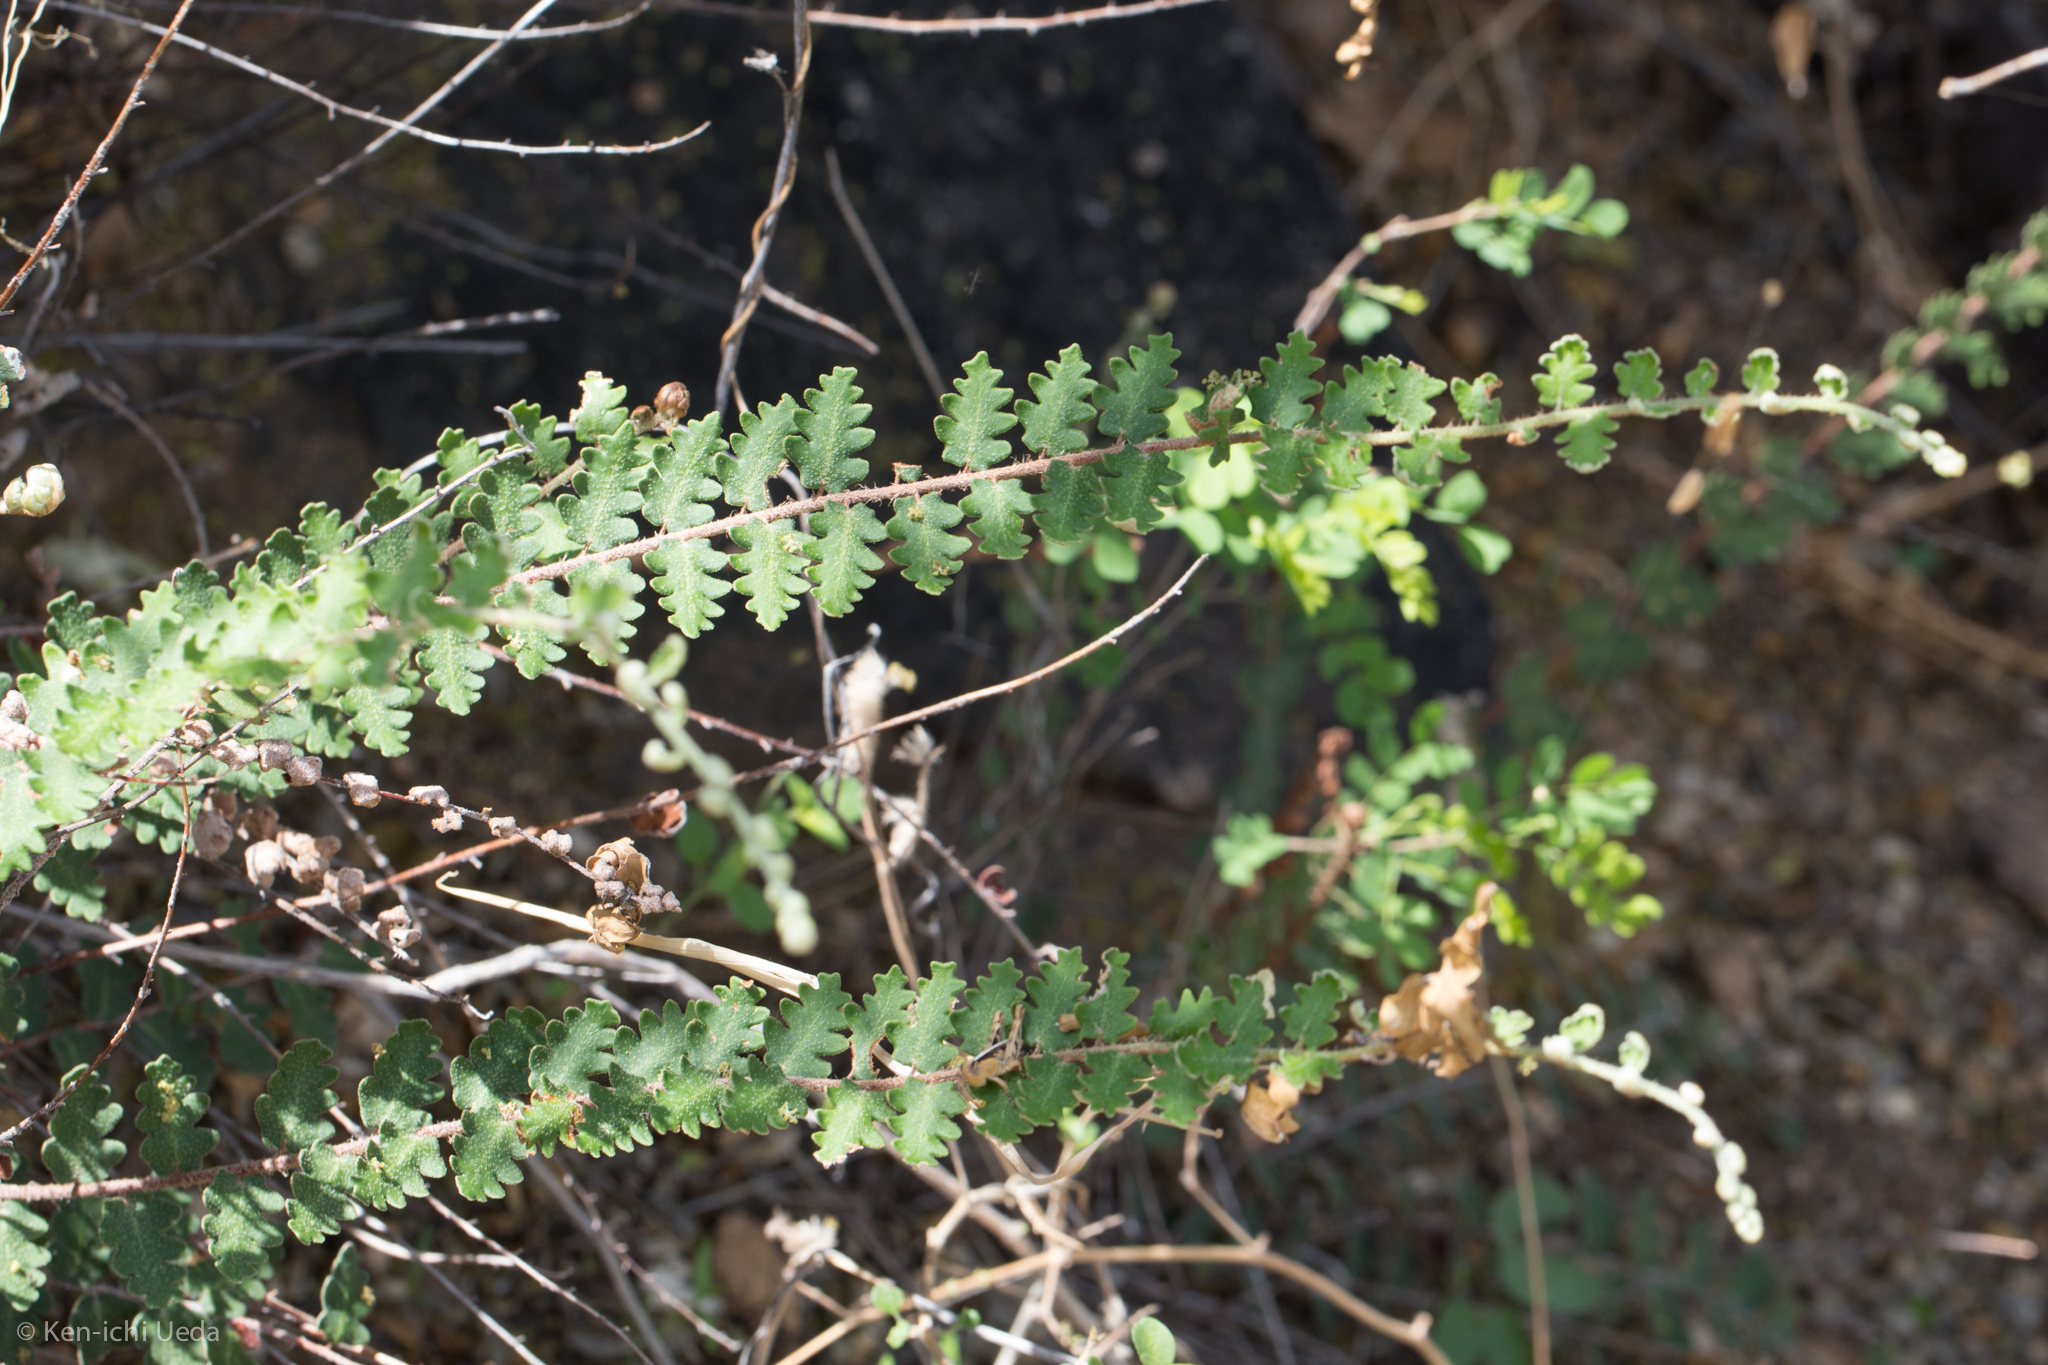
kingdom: Plantae
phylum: Tracheophyta
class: Polypodiopsida
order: Polypodiales
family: Pteridaceae
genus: Astrolepis
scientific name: Astrolepis sinuata
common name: Wavy scaly cloakfern
